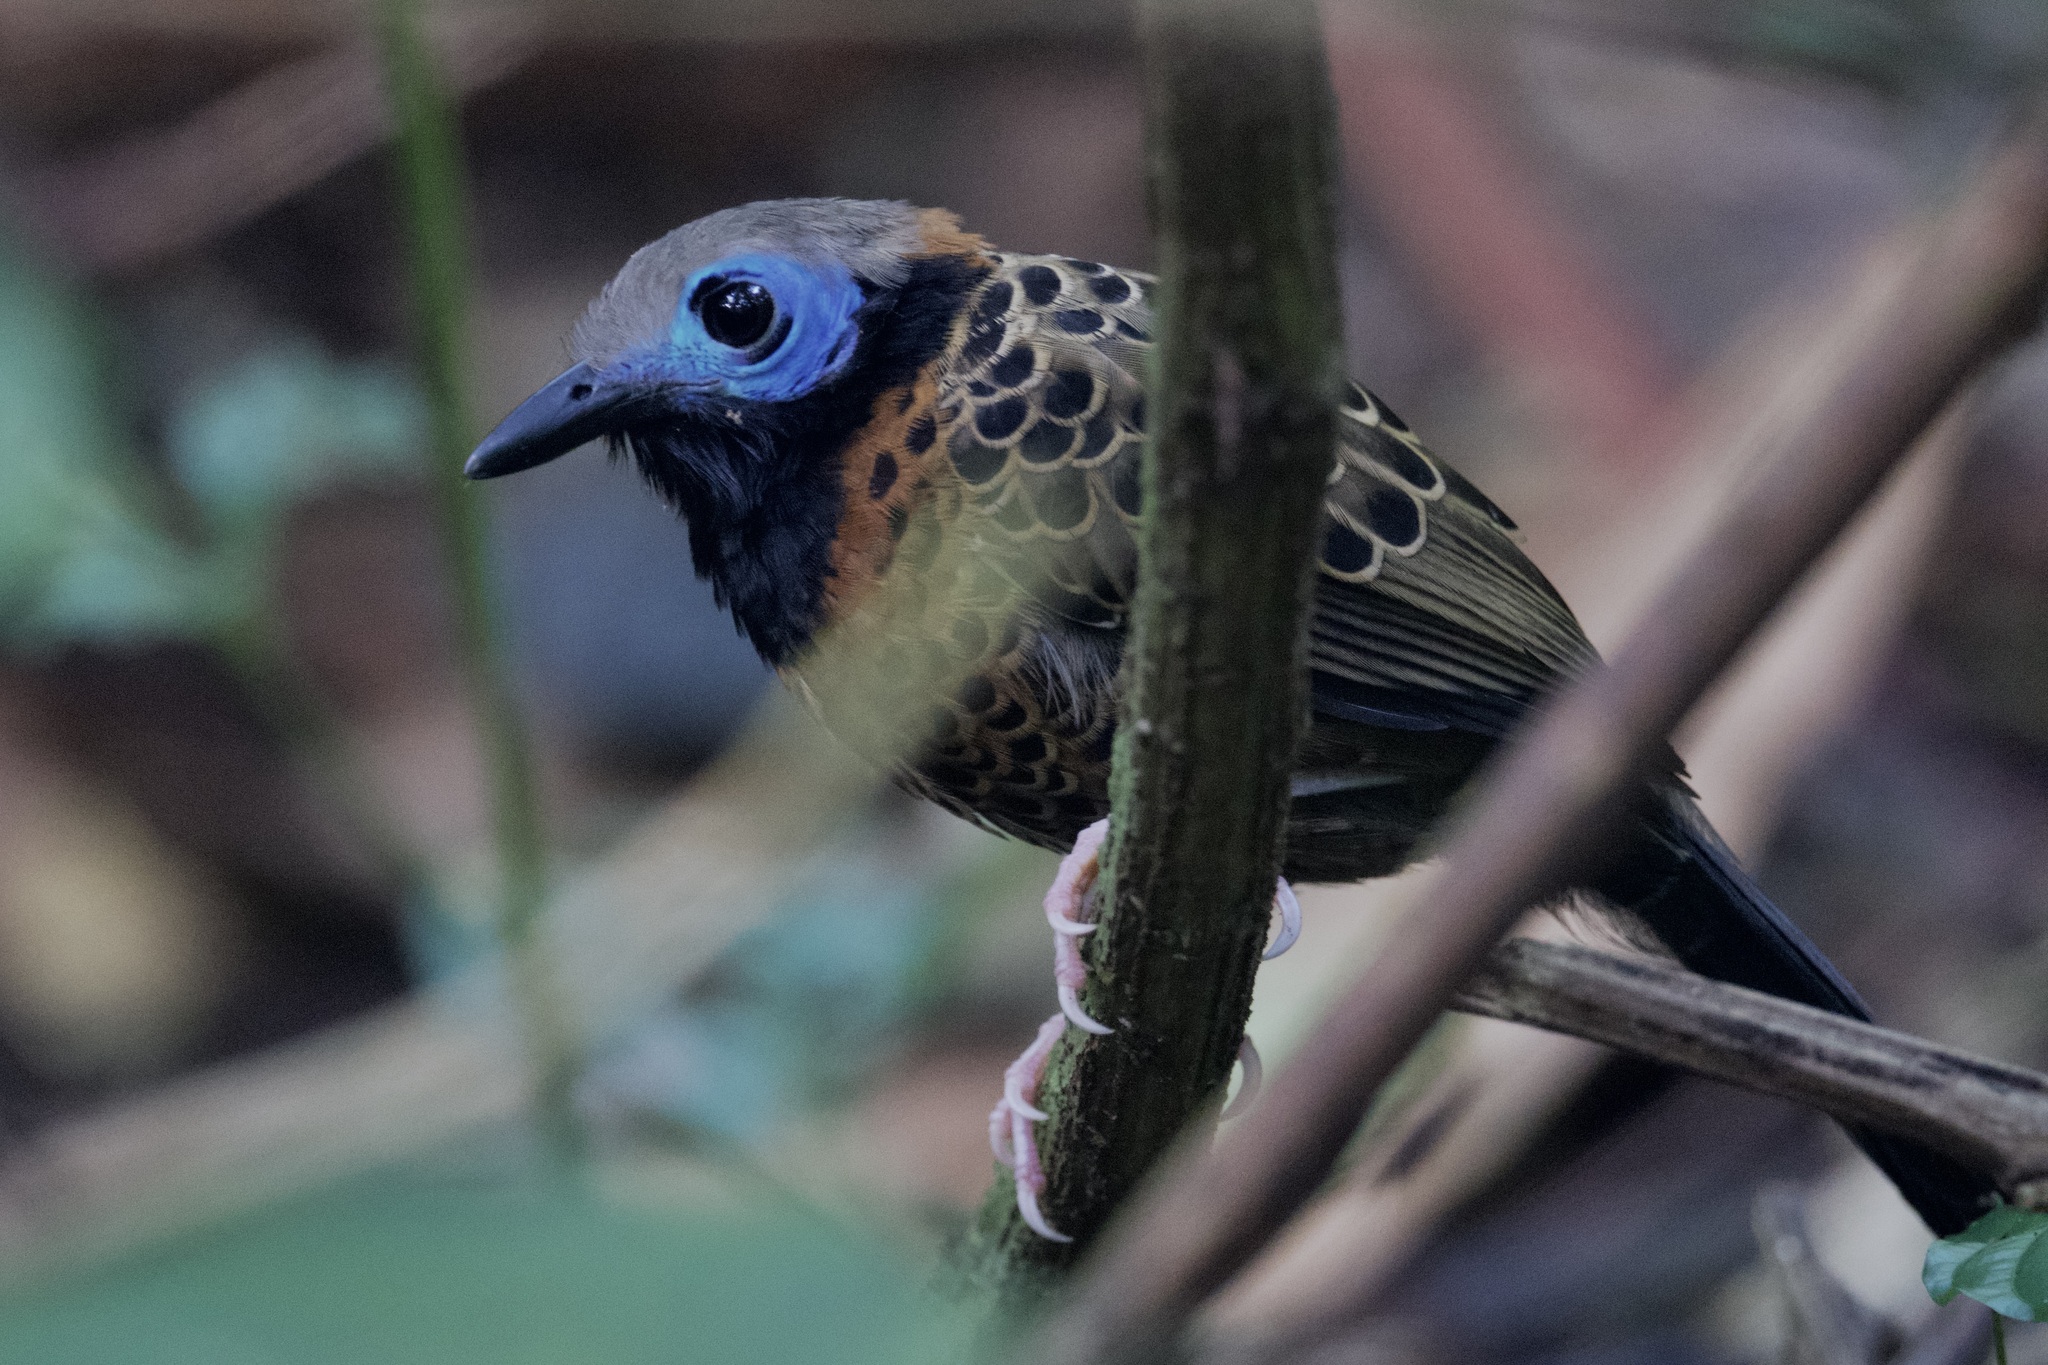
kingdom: Animalia
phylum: Chordata
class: Aves
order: Passeriformes
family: Thamnophilidae
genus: Phaenostictus
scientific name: Phaenostictus mcleannani
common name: Ocellated antbird
